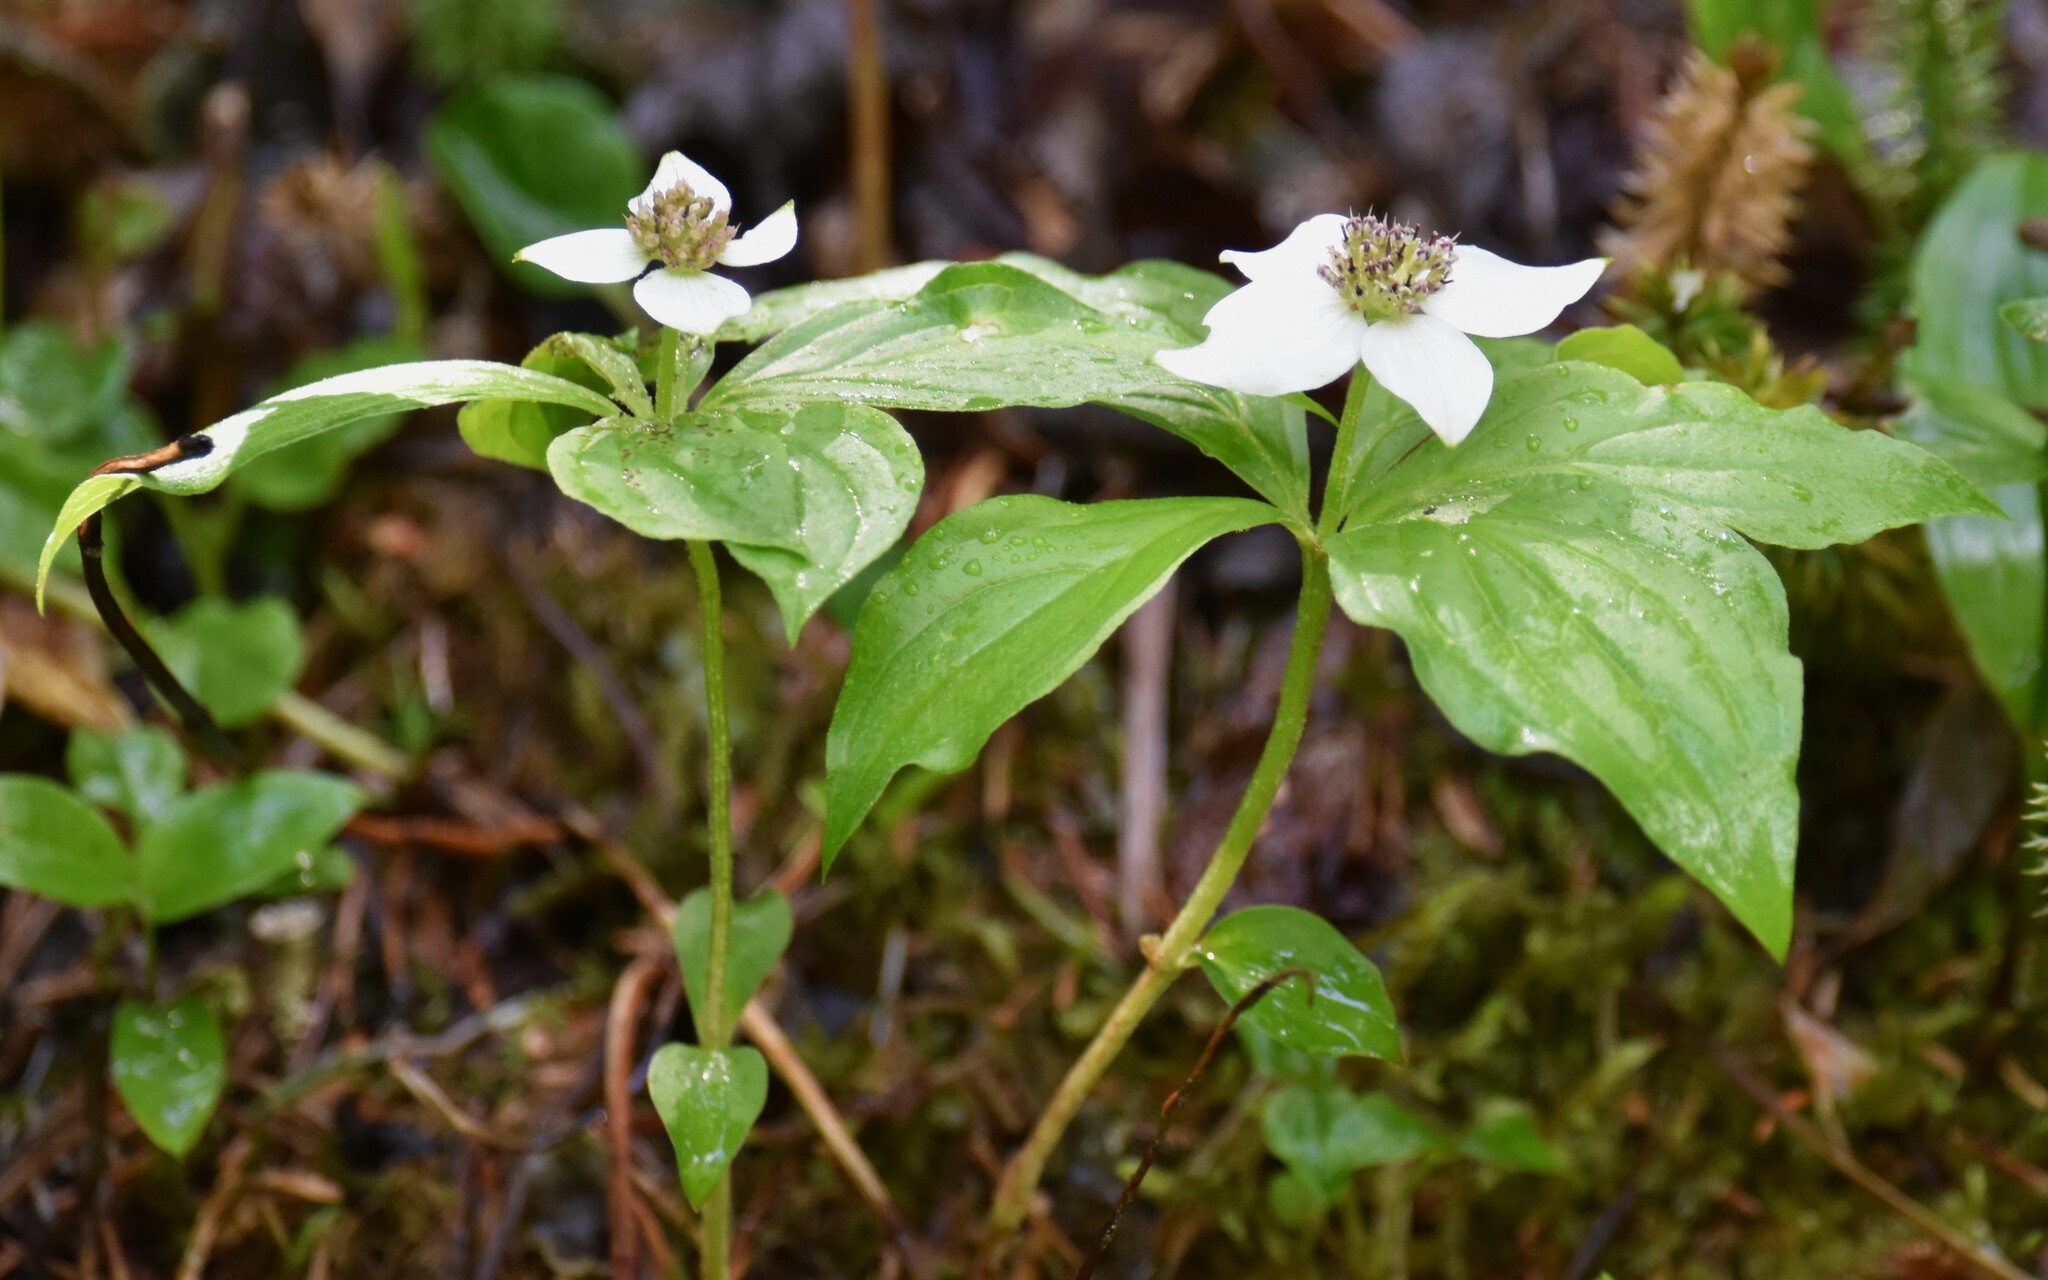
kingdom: Plantae
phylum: Tracheophyta
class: Magnoliopsida
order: Cornales
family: Cornaceae
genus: Cornus
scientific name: Cornus unalaschkensis
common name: Alaska bunchberry
